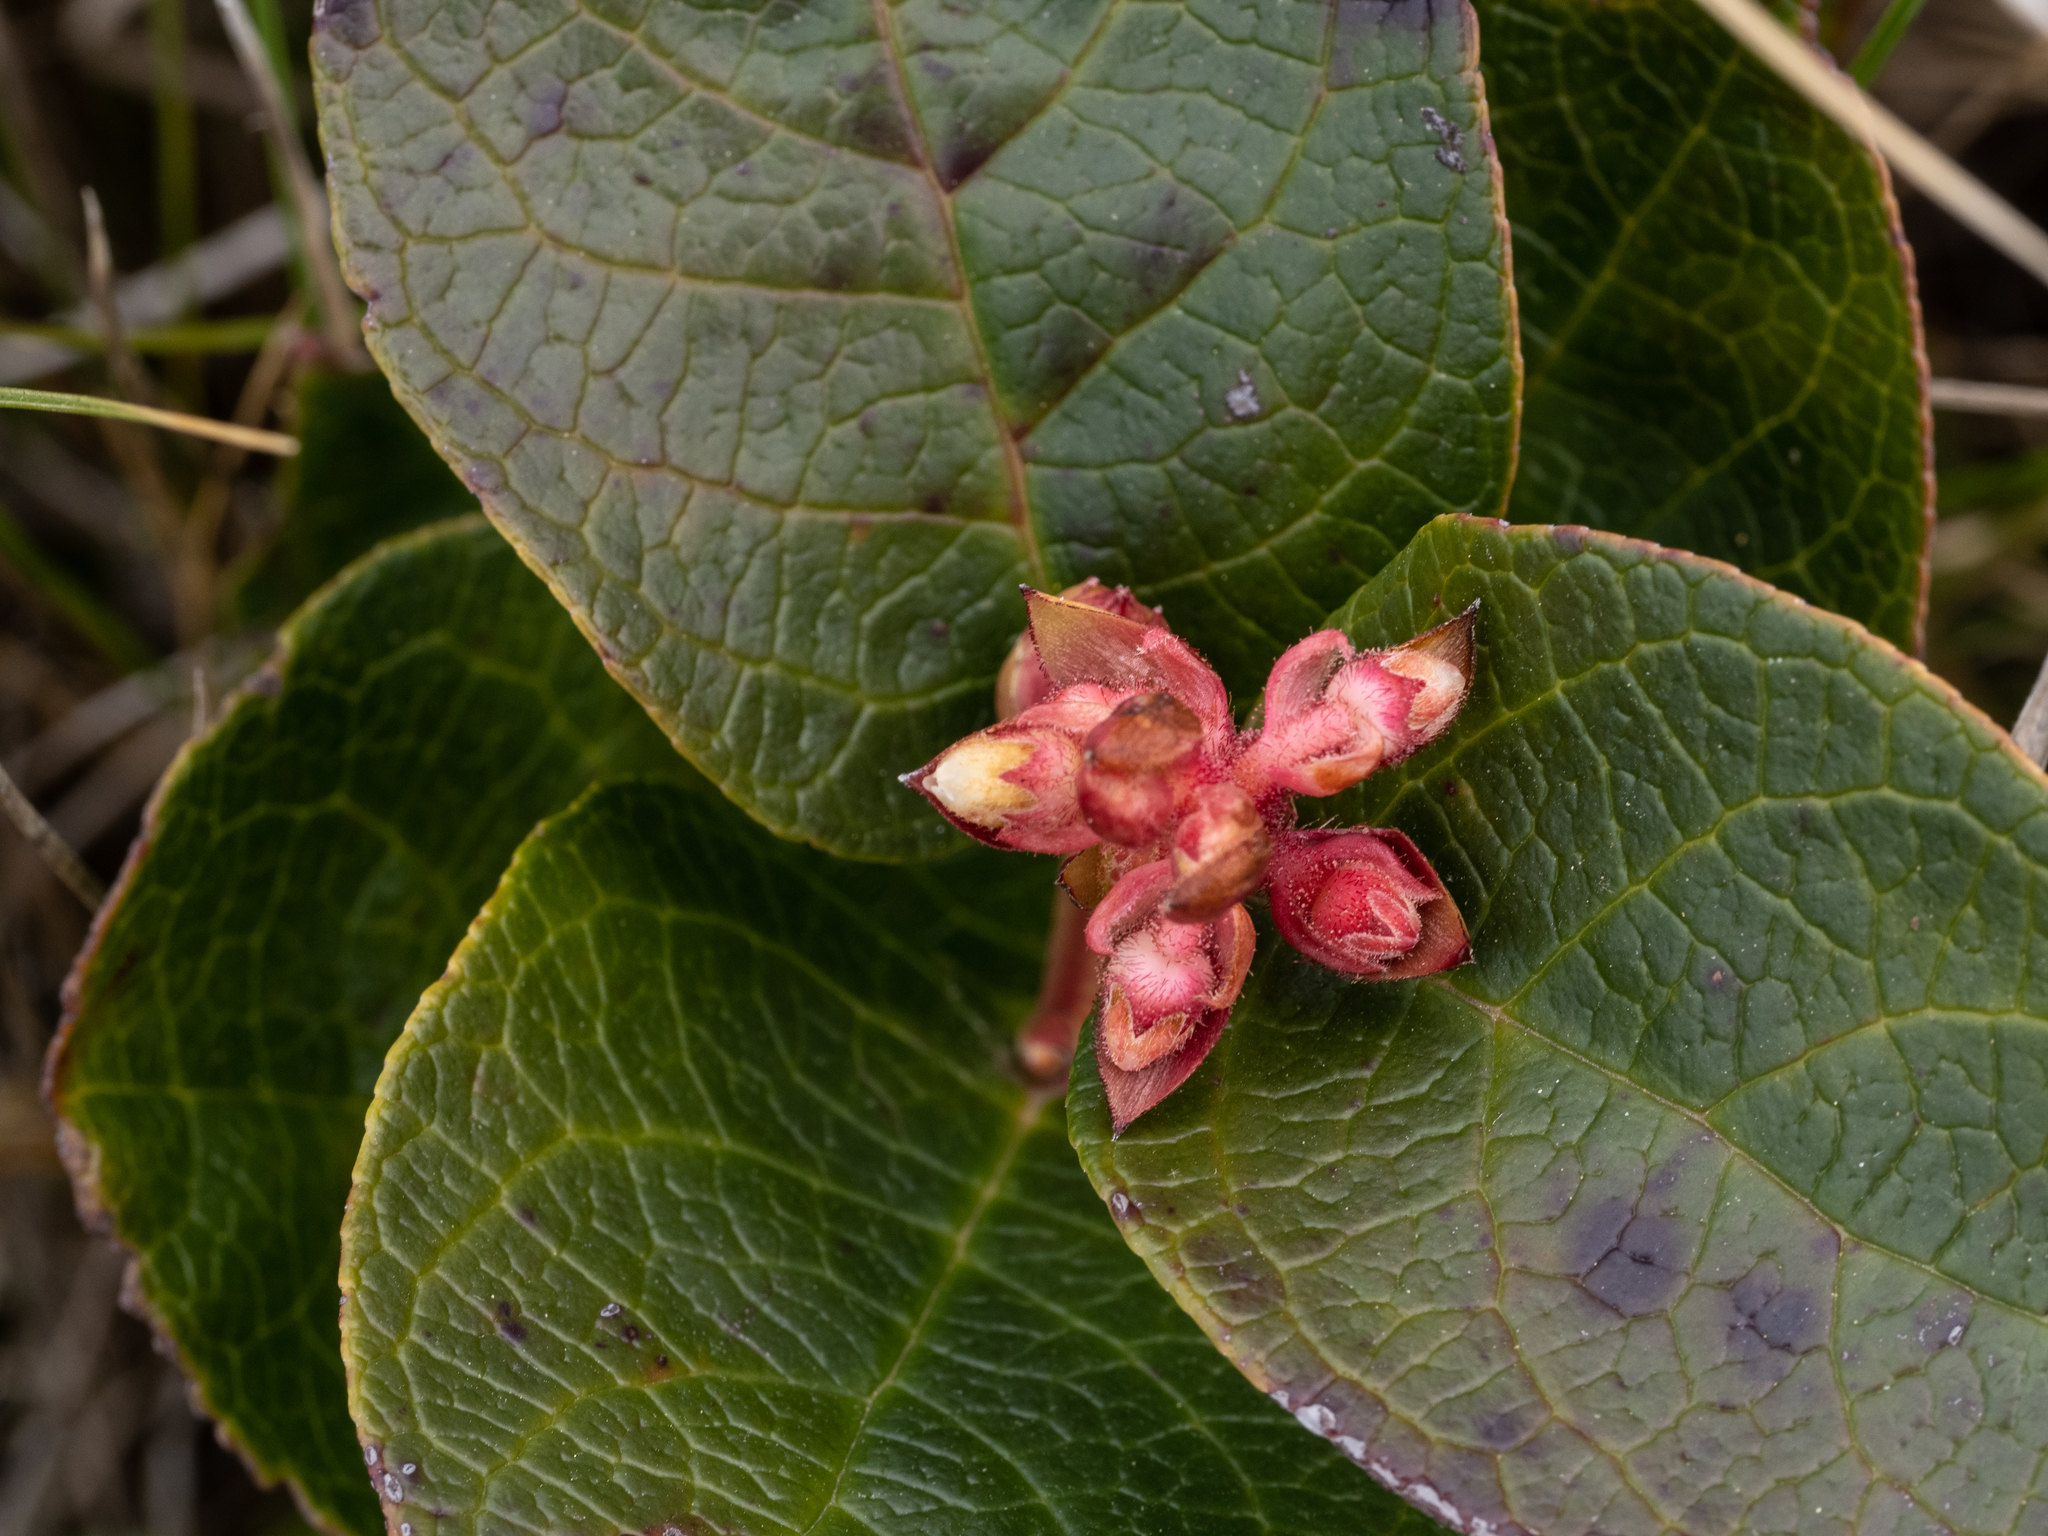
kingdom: Plantae
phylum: Tracheophyta
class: Magnoliopsida
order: Ericales
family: Ericaceae
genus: Gaultheria
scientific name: Gaultheria shallon
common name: Shallon
